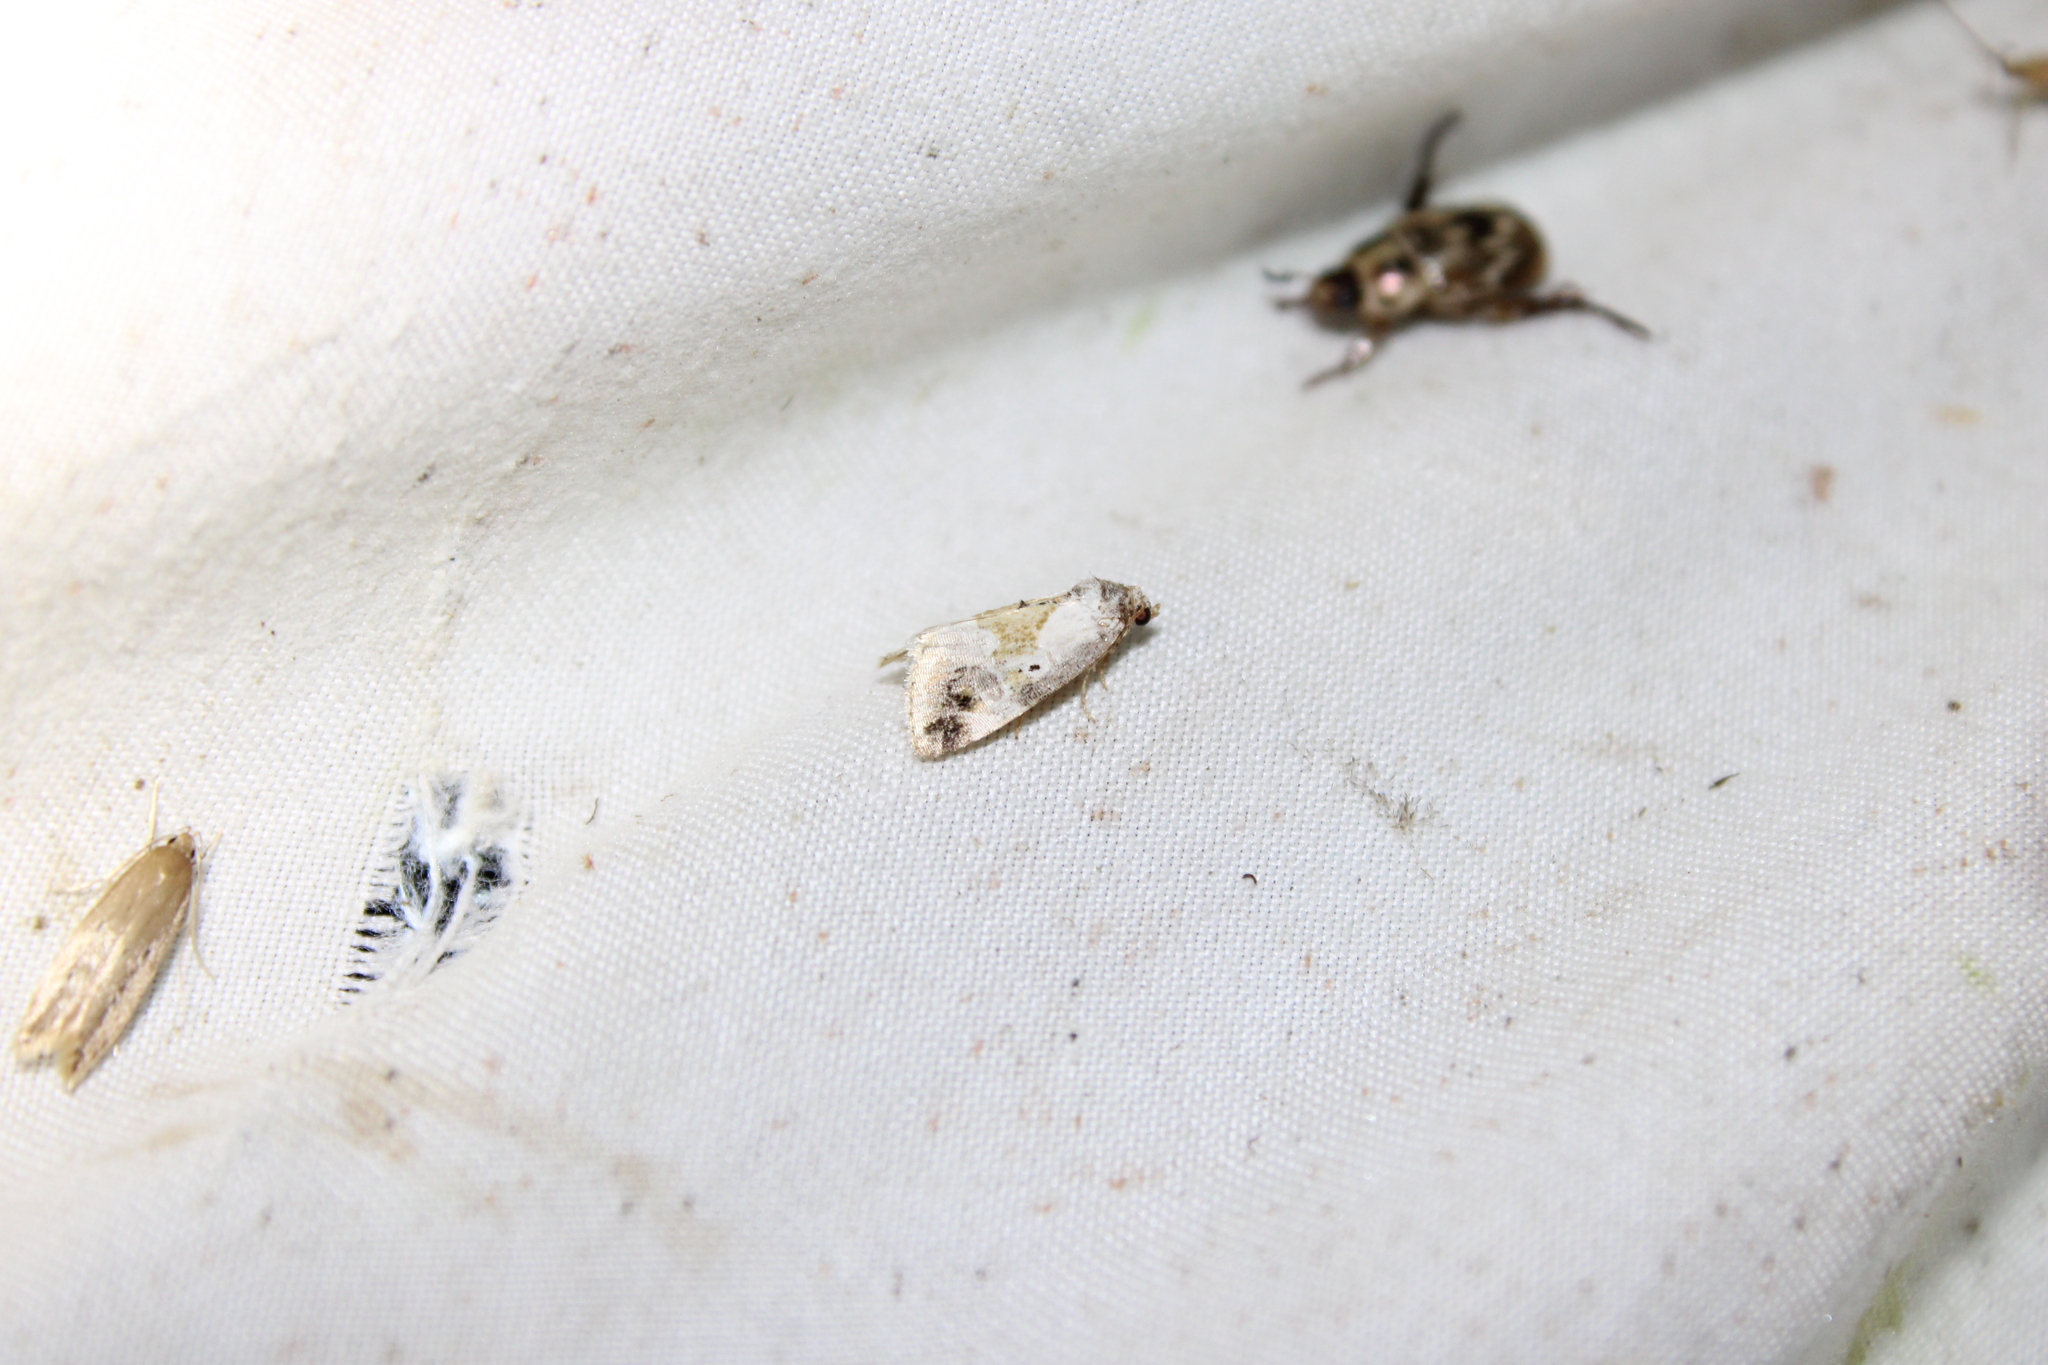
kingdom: Animalia
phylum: Arthropoda
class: Insecta
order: Lepidoptera
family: Noctuidae
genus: Maliattha
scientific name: Maliattha synochitis
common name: Black-dotted glyph
